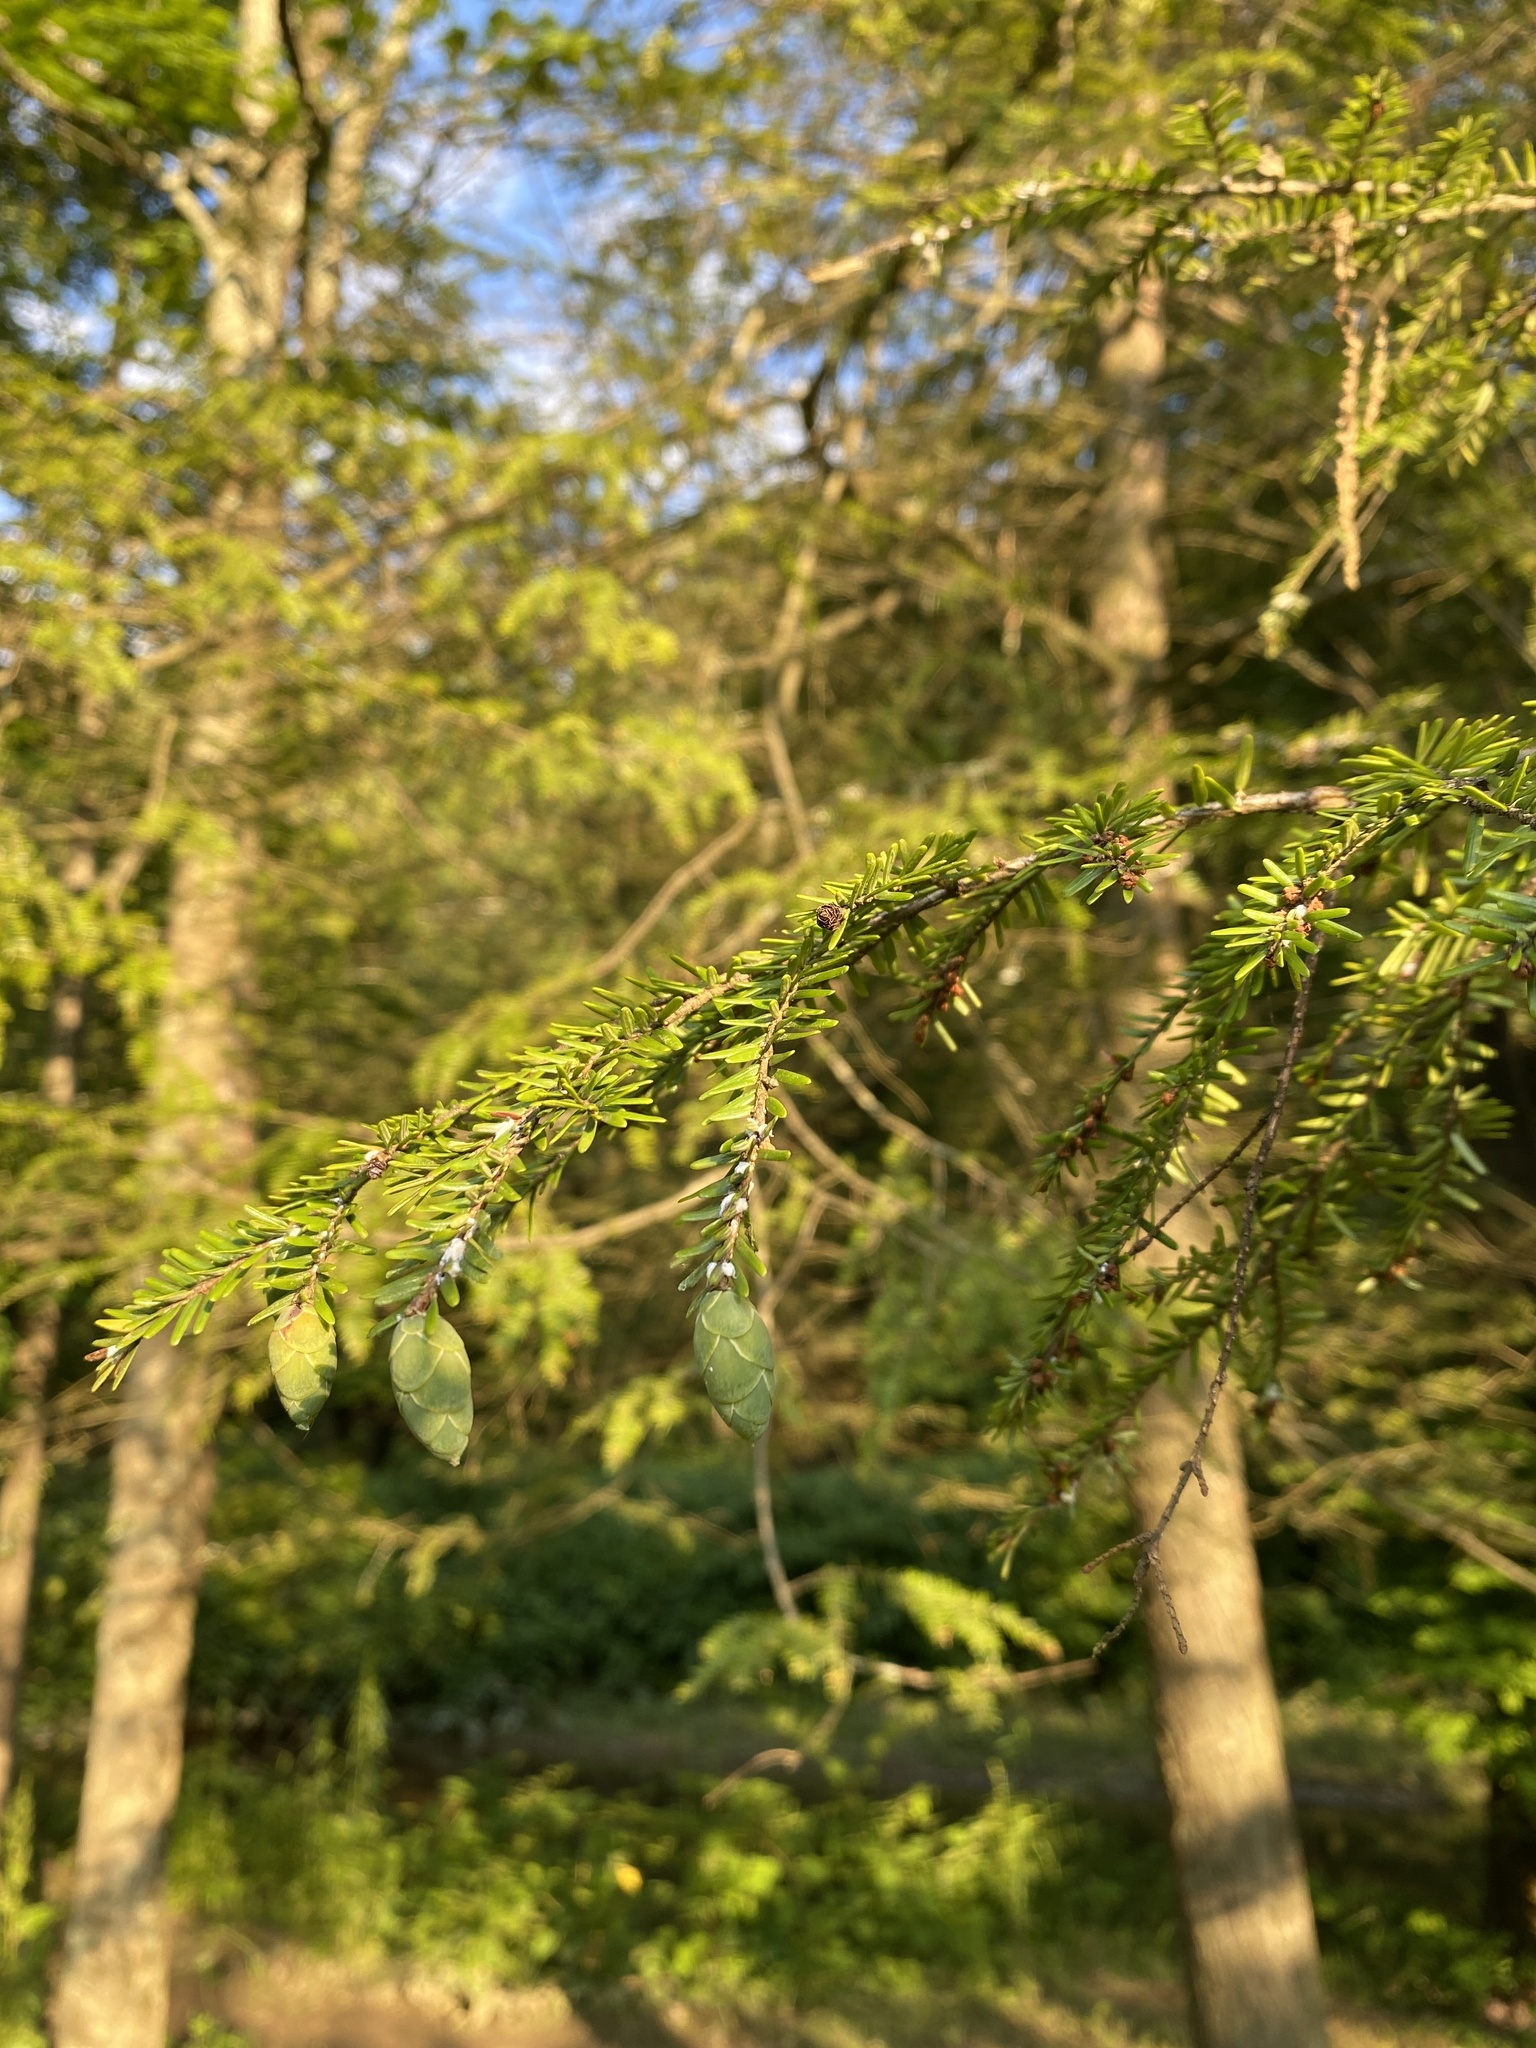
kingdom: Animalia
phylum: Arthropoda
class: Insecta
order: Hemiptera
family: Adelgidae
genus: Adelges
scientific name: Adelges tsugae
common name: Hemlock woolly adelgid
